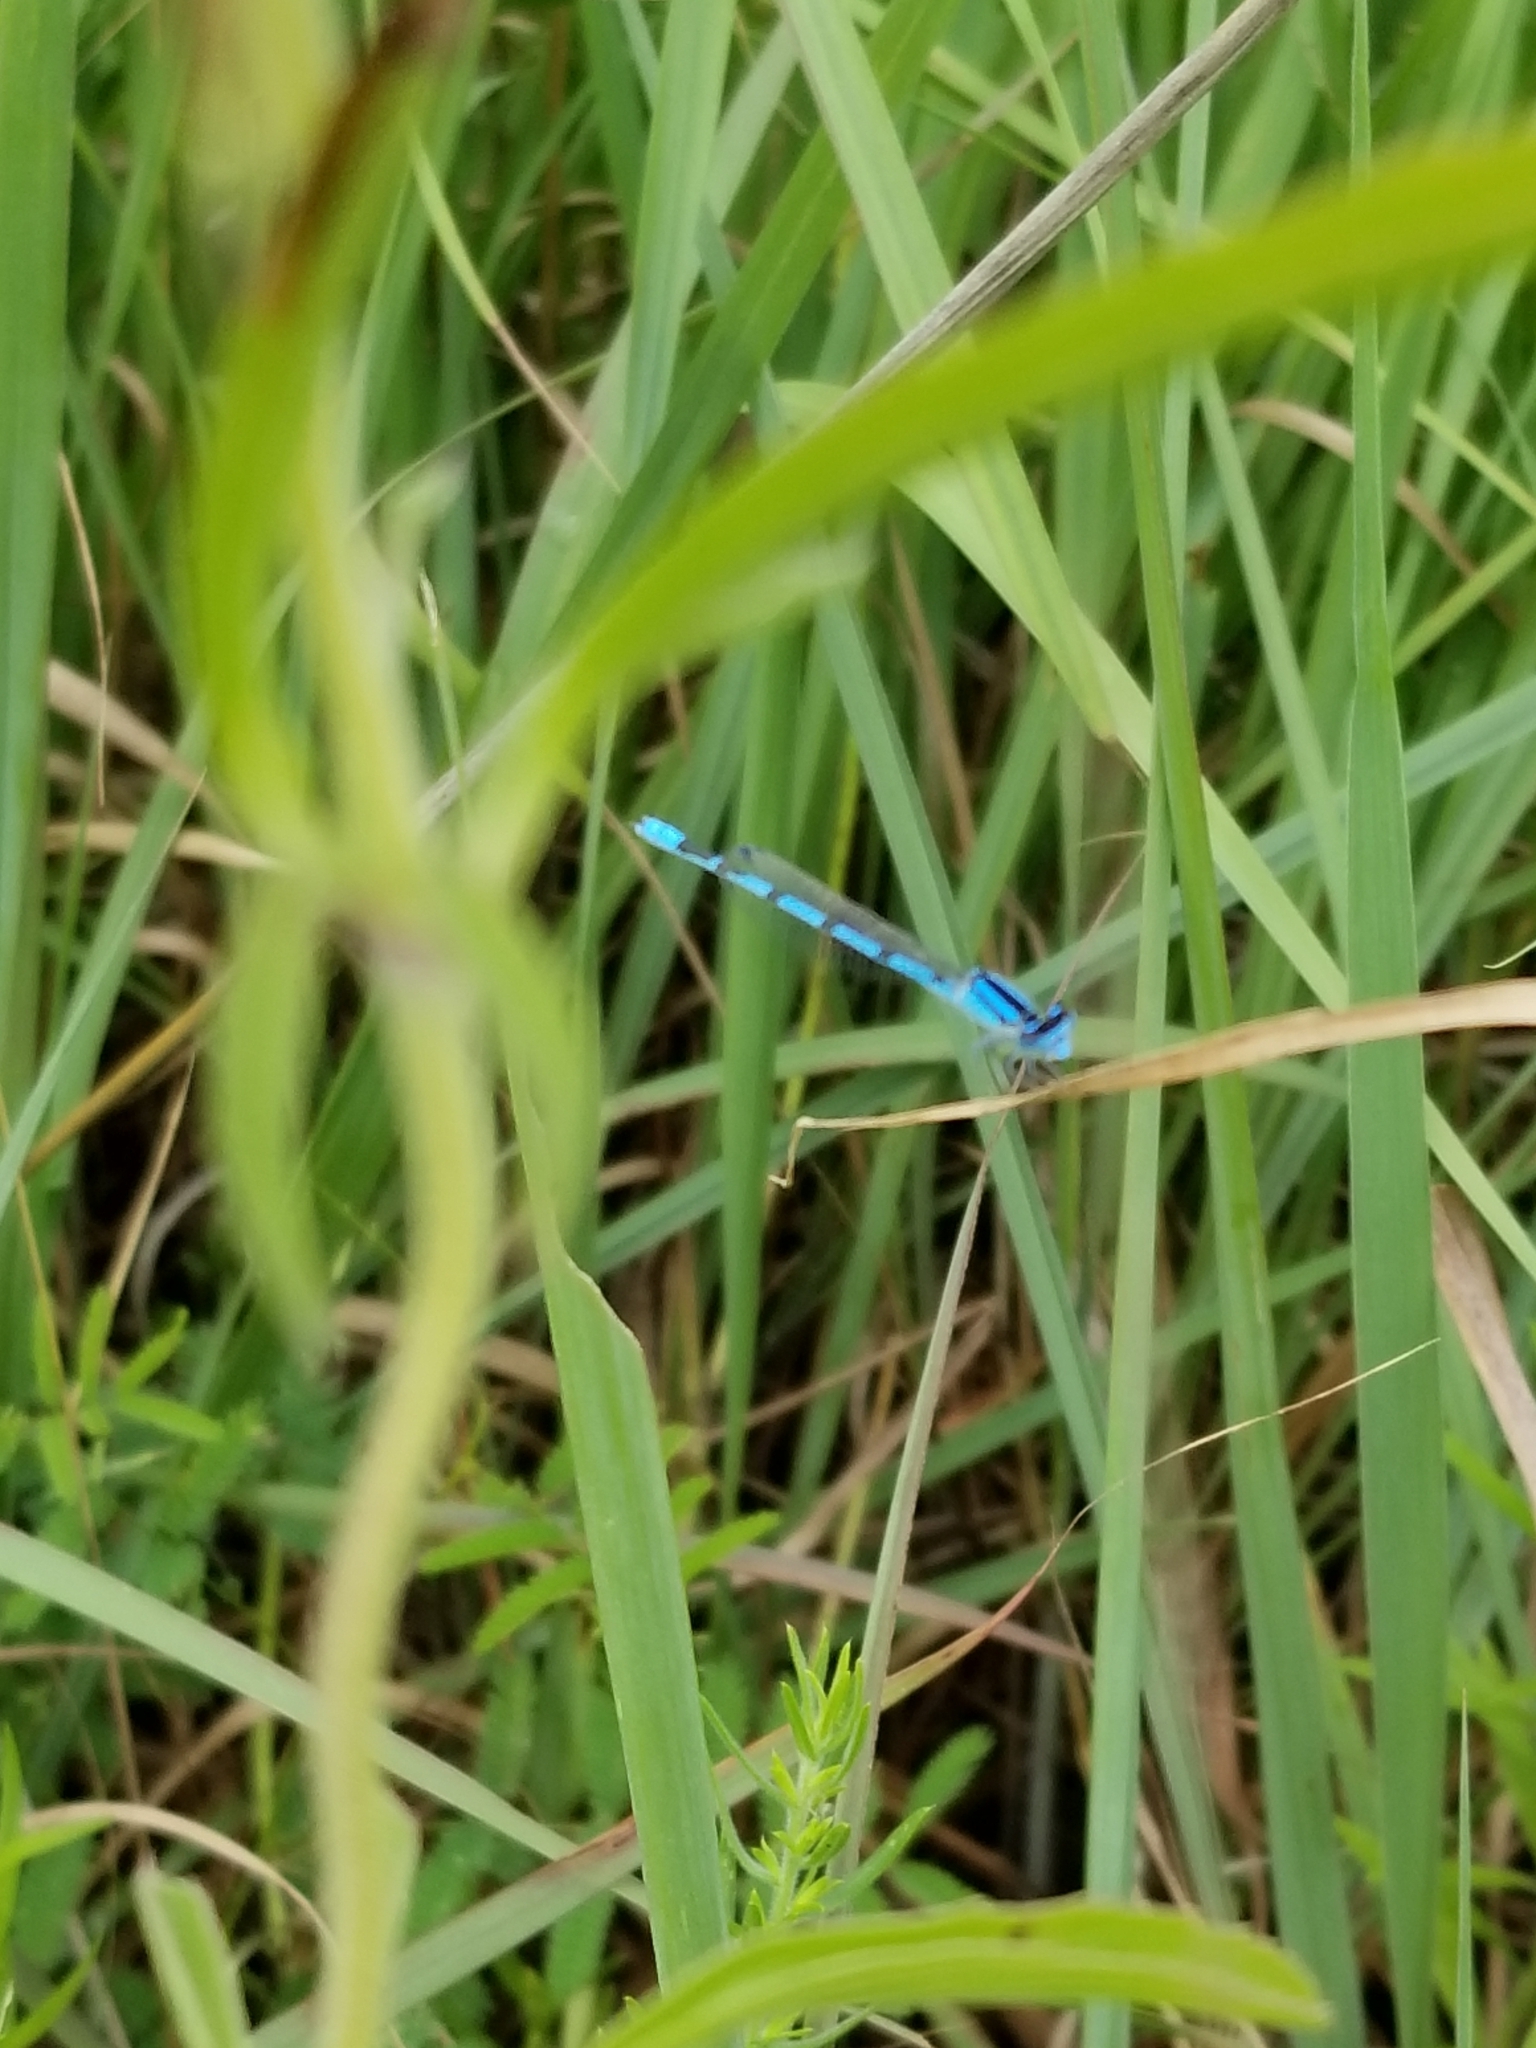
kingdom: Animalia
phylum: Arthropoda
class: Insecta
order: Odonata
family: Coenagrionidae
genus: Enallagma
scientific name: Enallagma civile
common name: Damselfly
